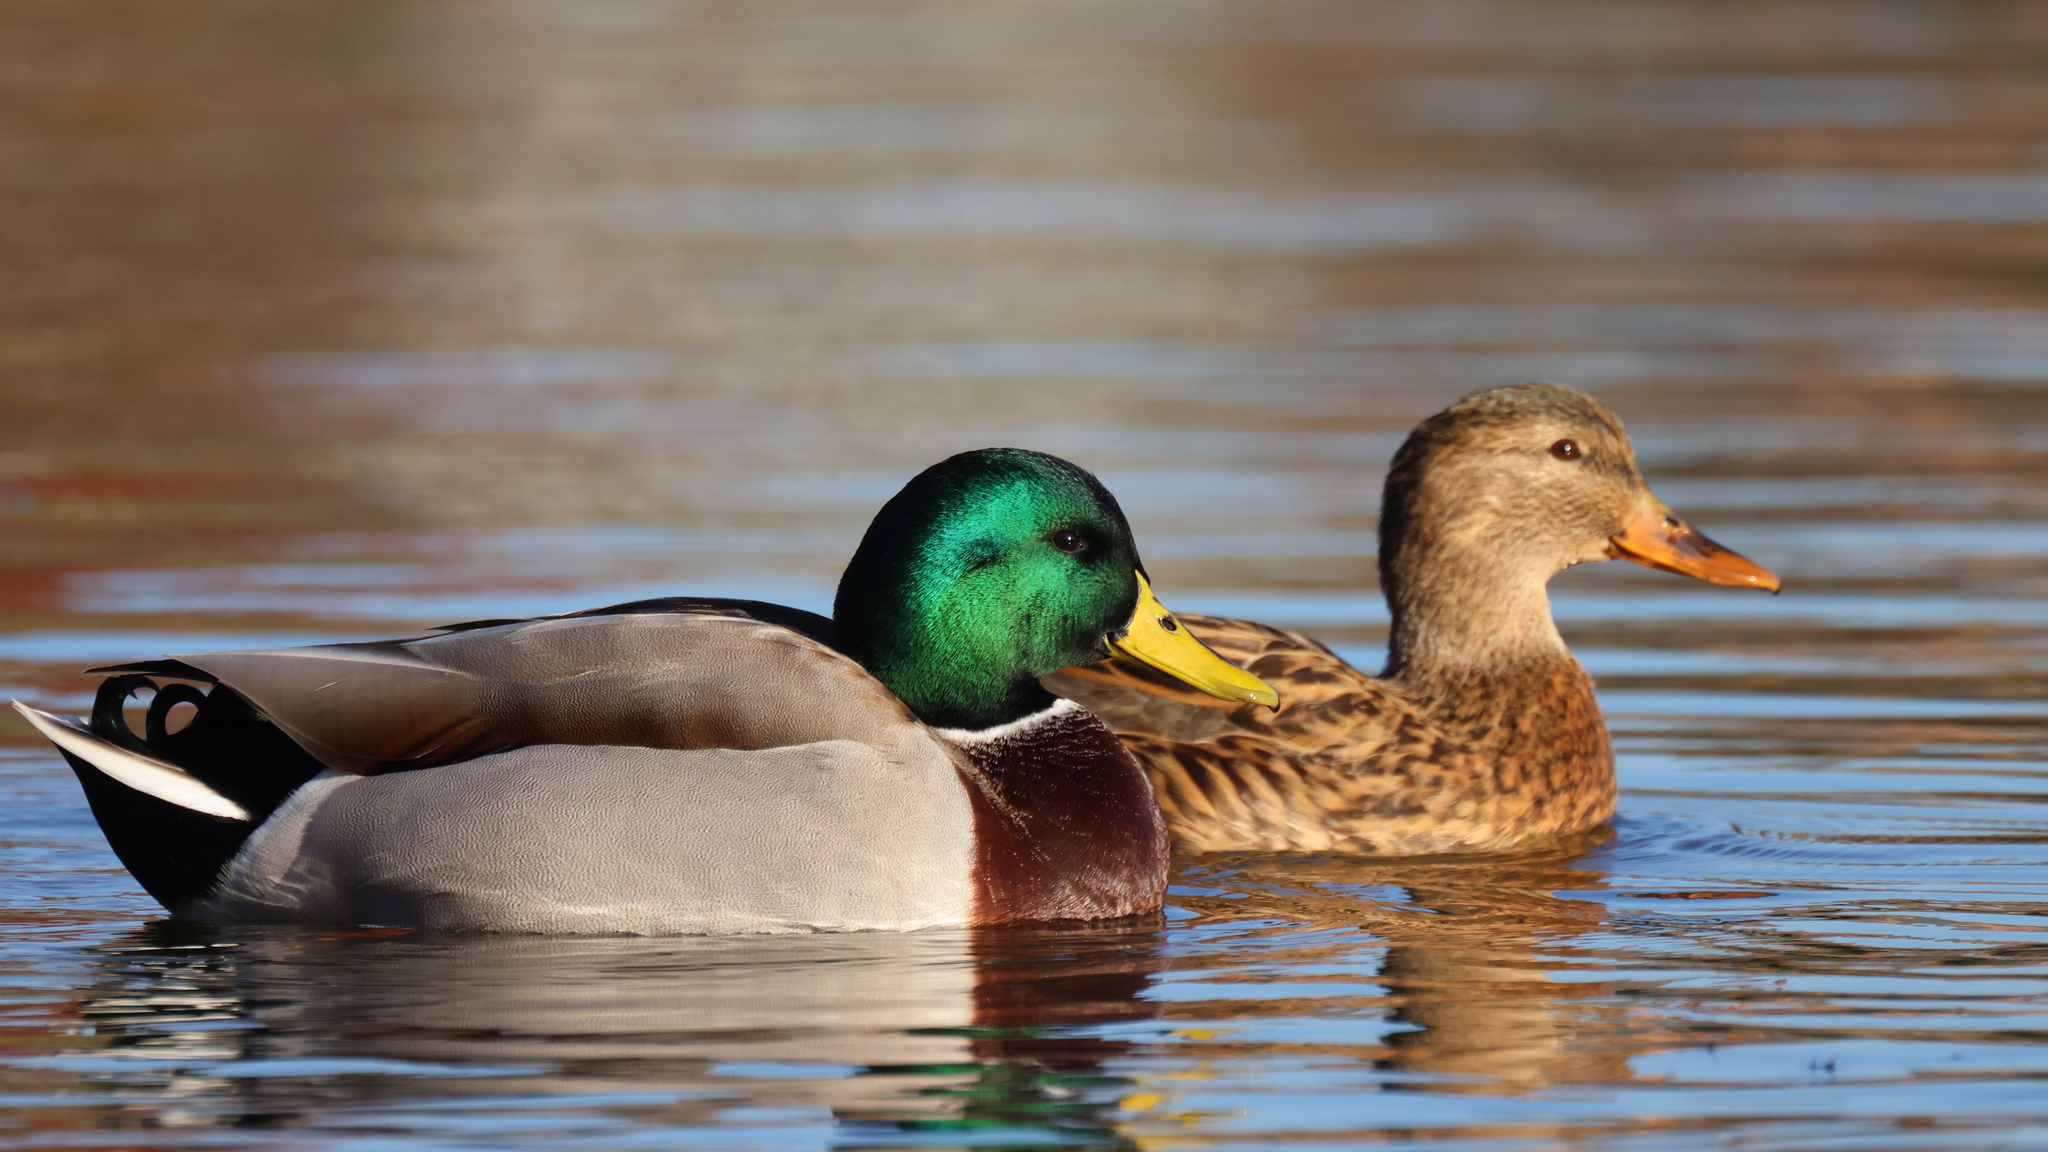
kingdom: Animalia
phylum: Chordata
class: Aves
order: Anseriformes
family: Anatidae
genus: Anas
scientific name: Anas platyrhynchos
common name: Mallard
